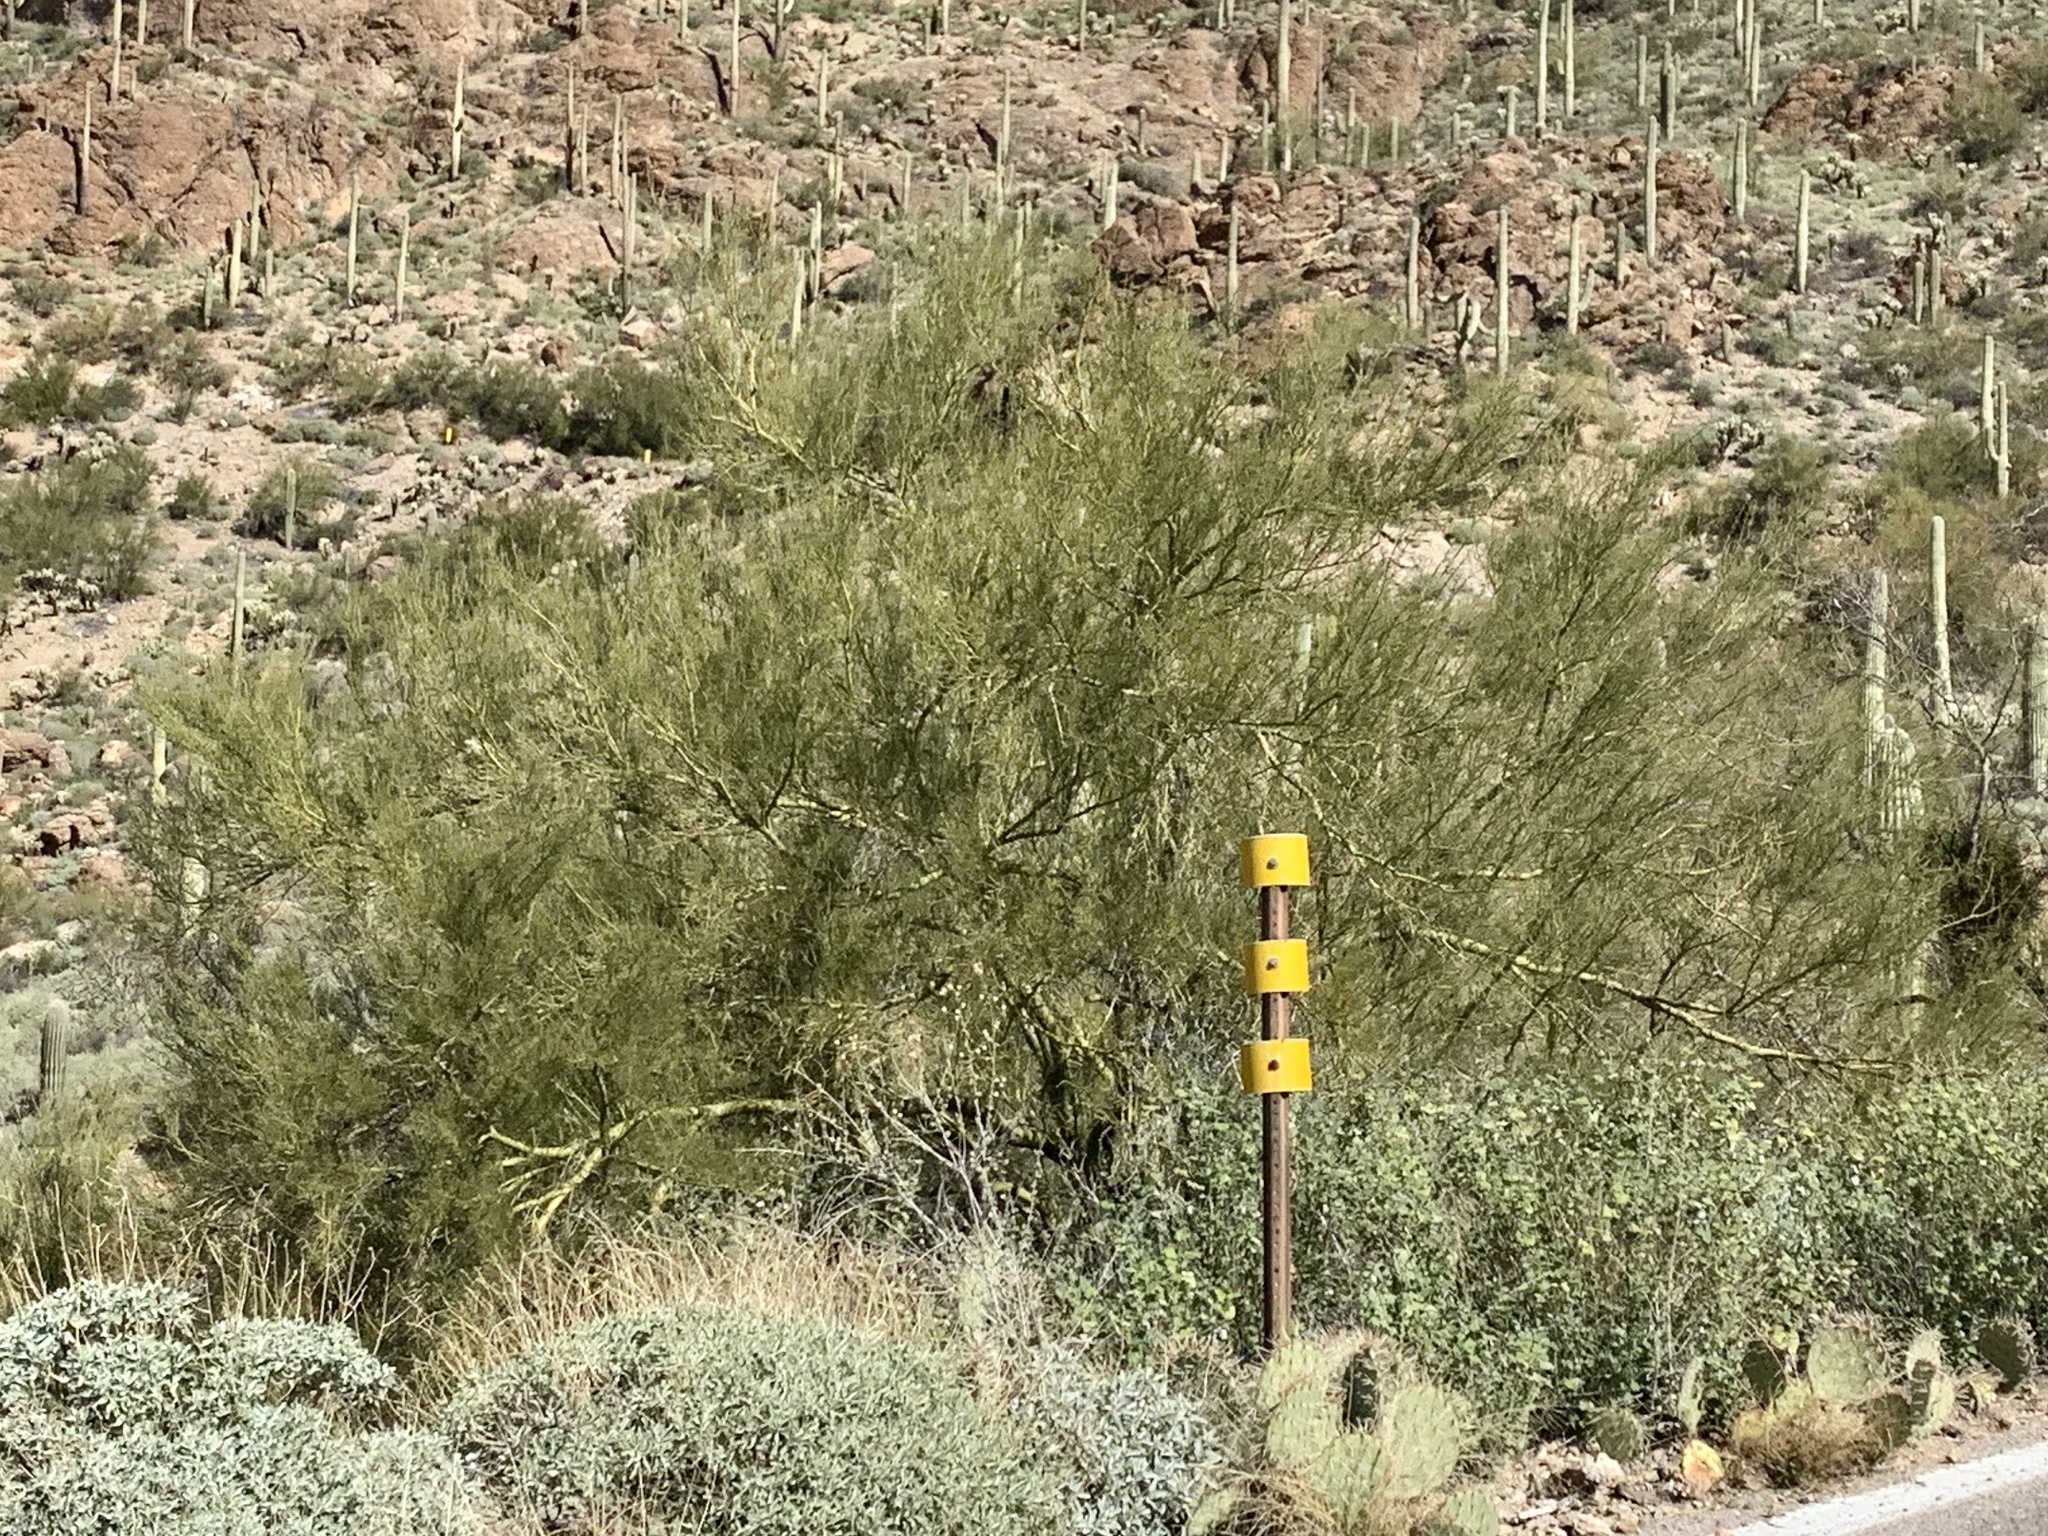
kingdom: Plantae
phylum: Tracheophyta
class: Magnoliopsida
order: Fabales
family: Fabaceae
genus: Parkinsonia
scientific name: Parkinsonia microphylla
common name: Yellow paloverde
